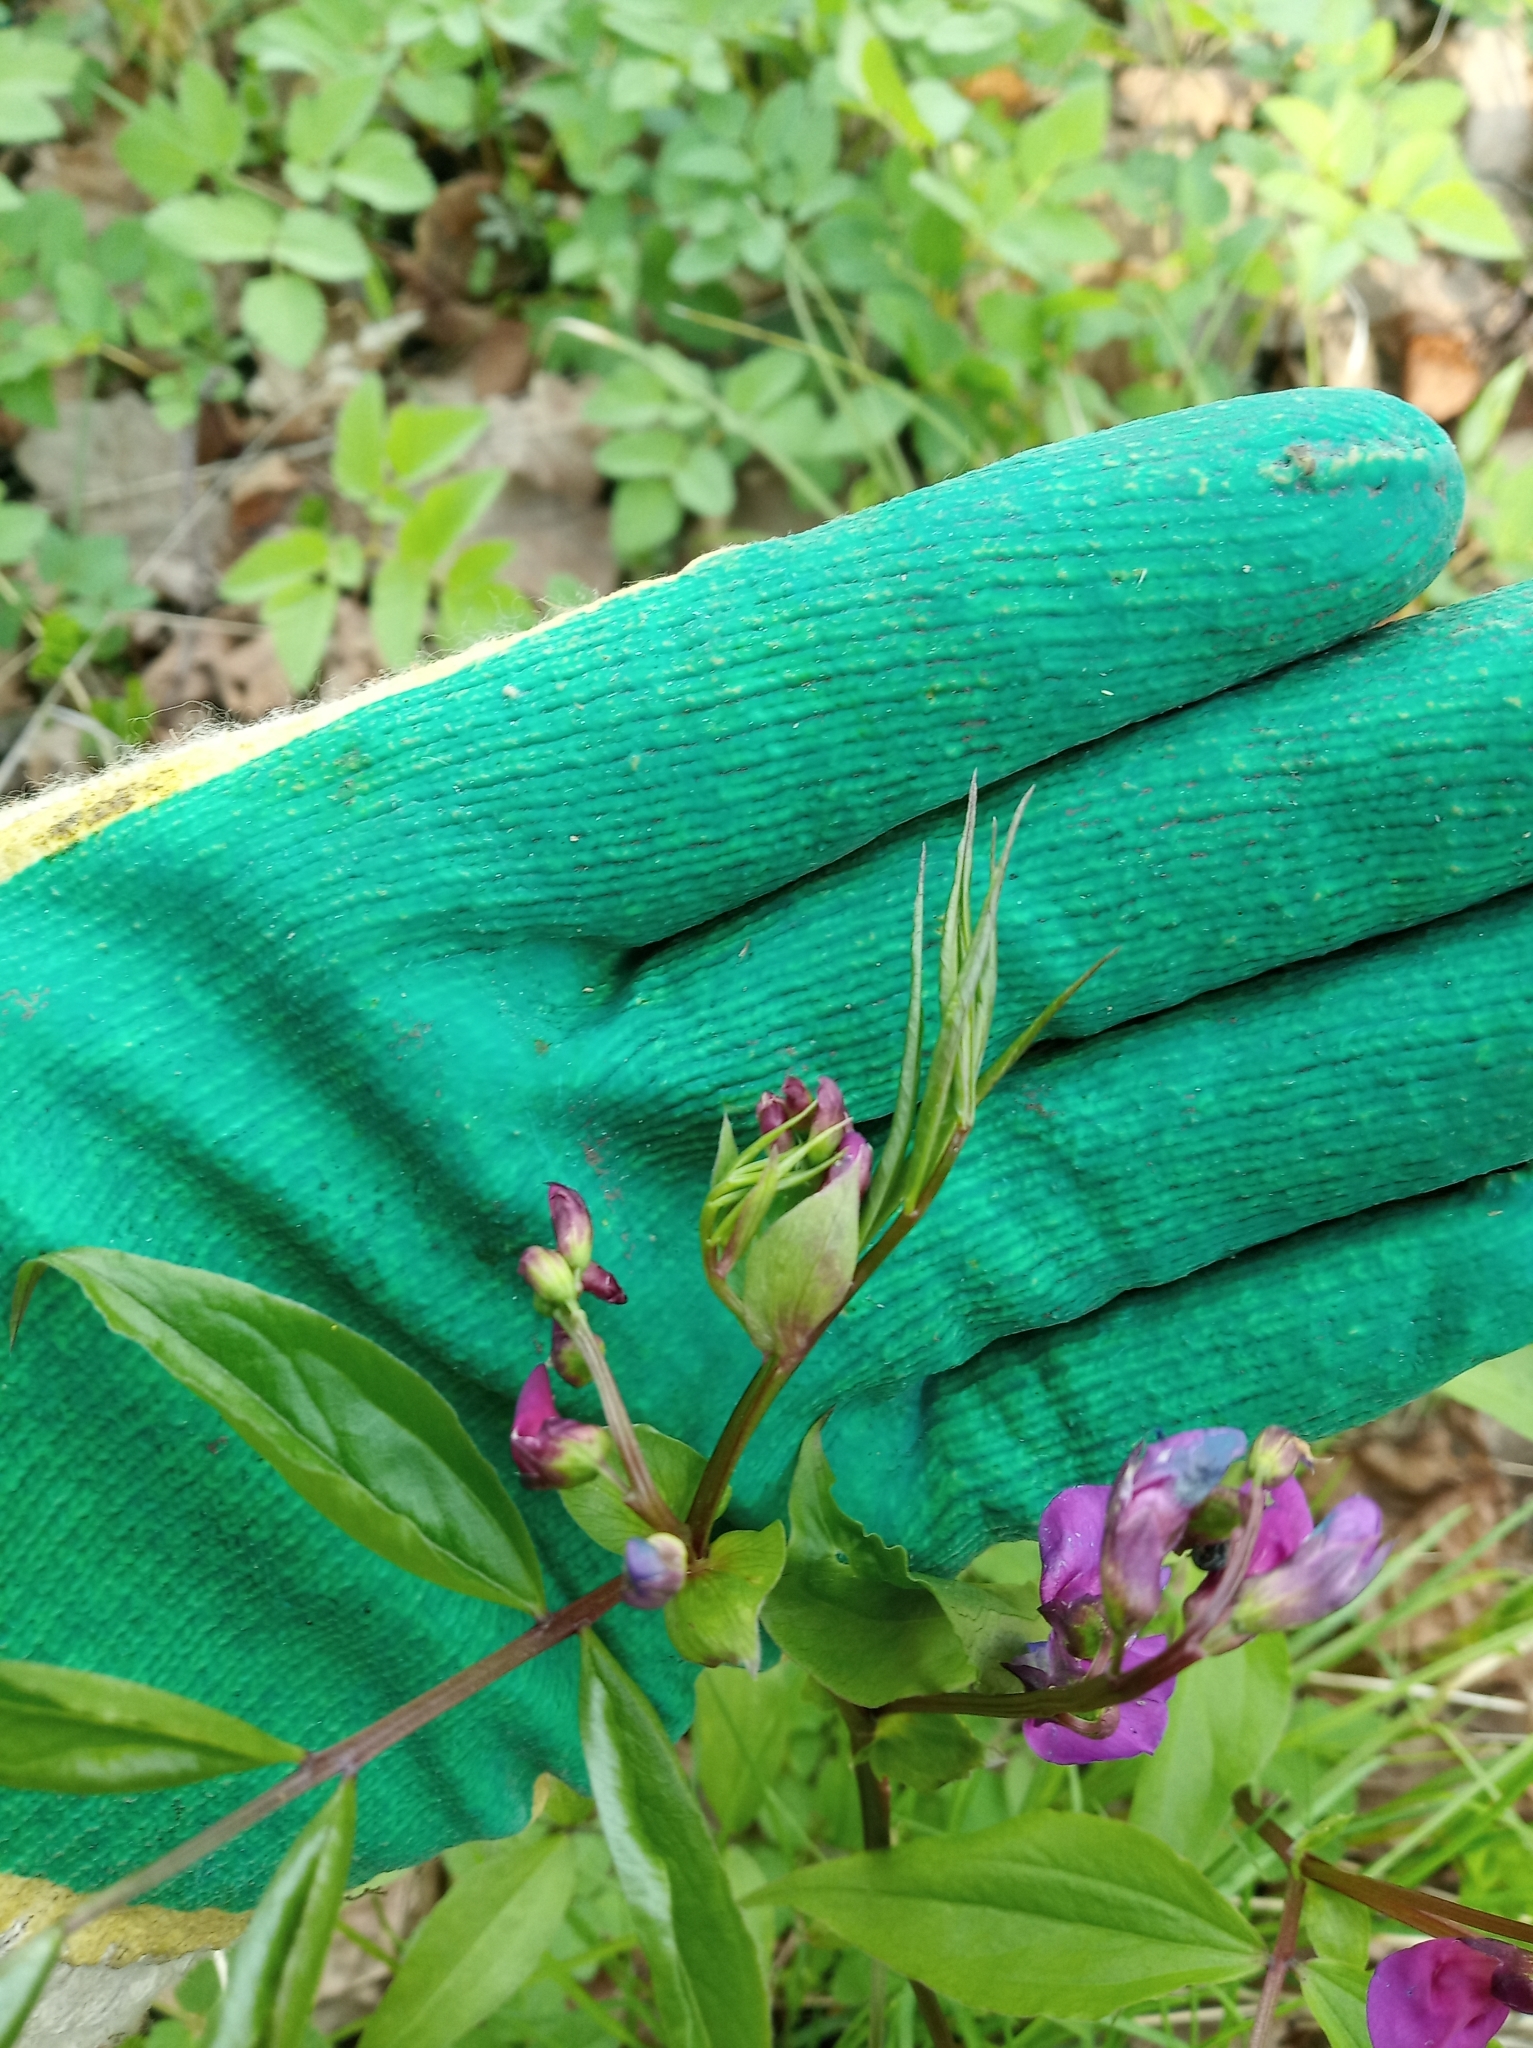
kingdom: Plantae
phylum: Tracheophyta
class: Magnoliopsida
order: Fabales
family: Fabaceae
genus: Lathyrus
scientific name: Lathyrus vernus
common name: Spring pea
